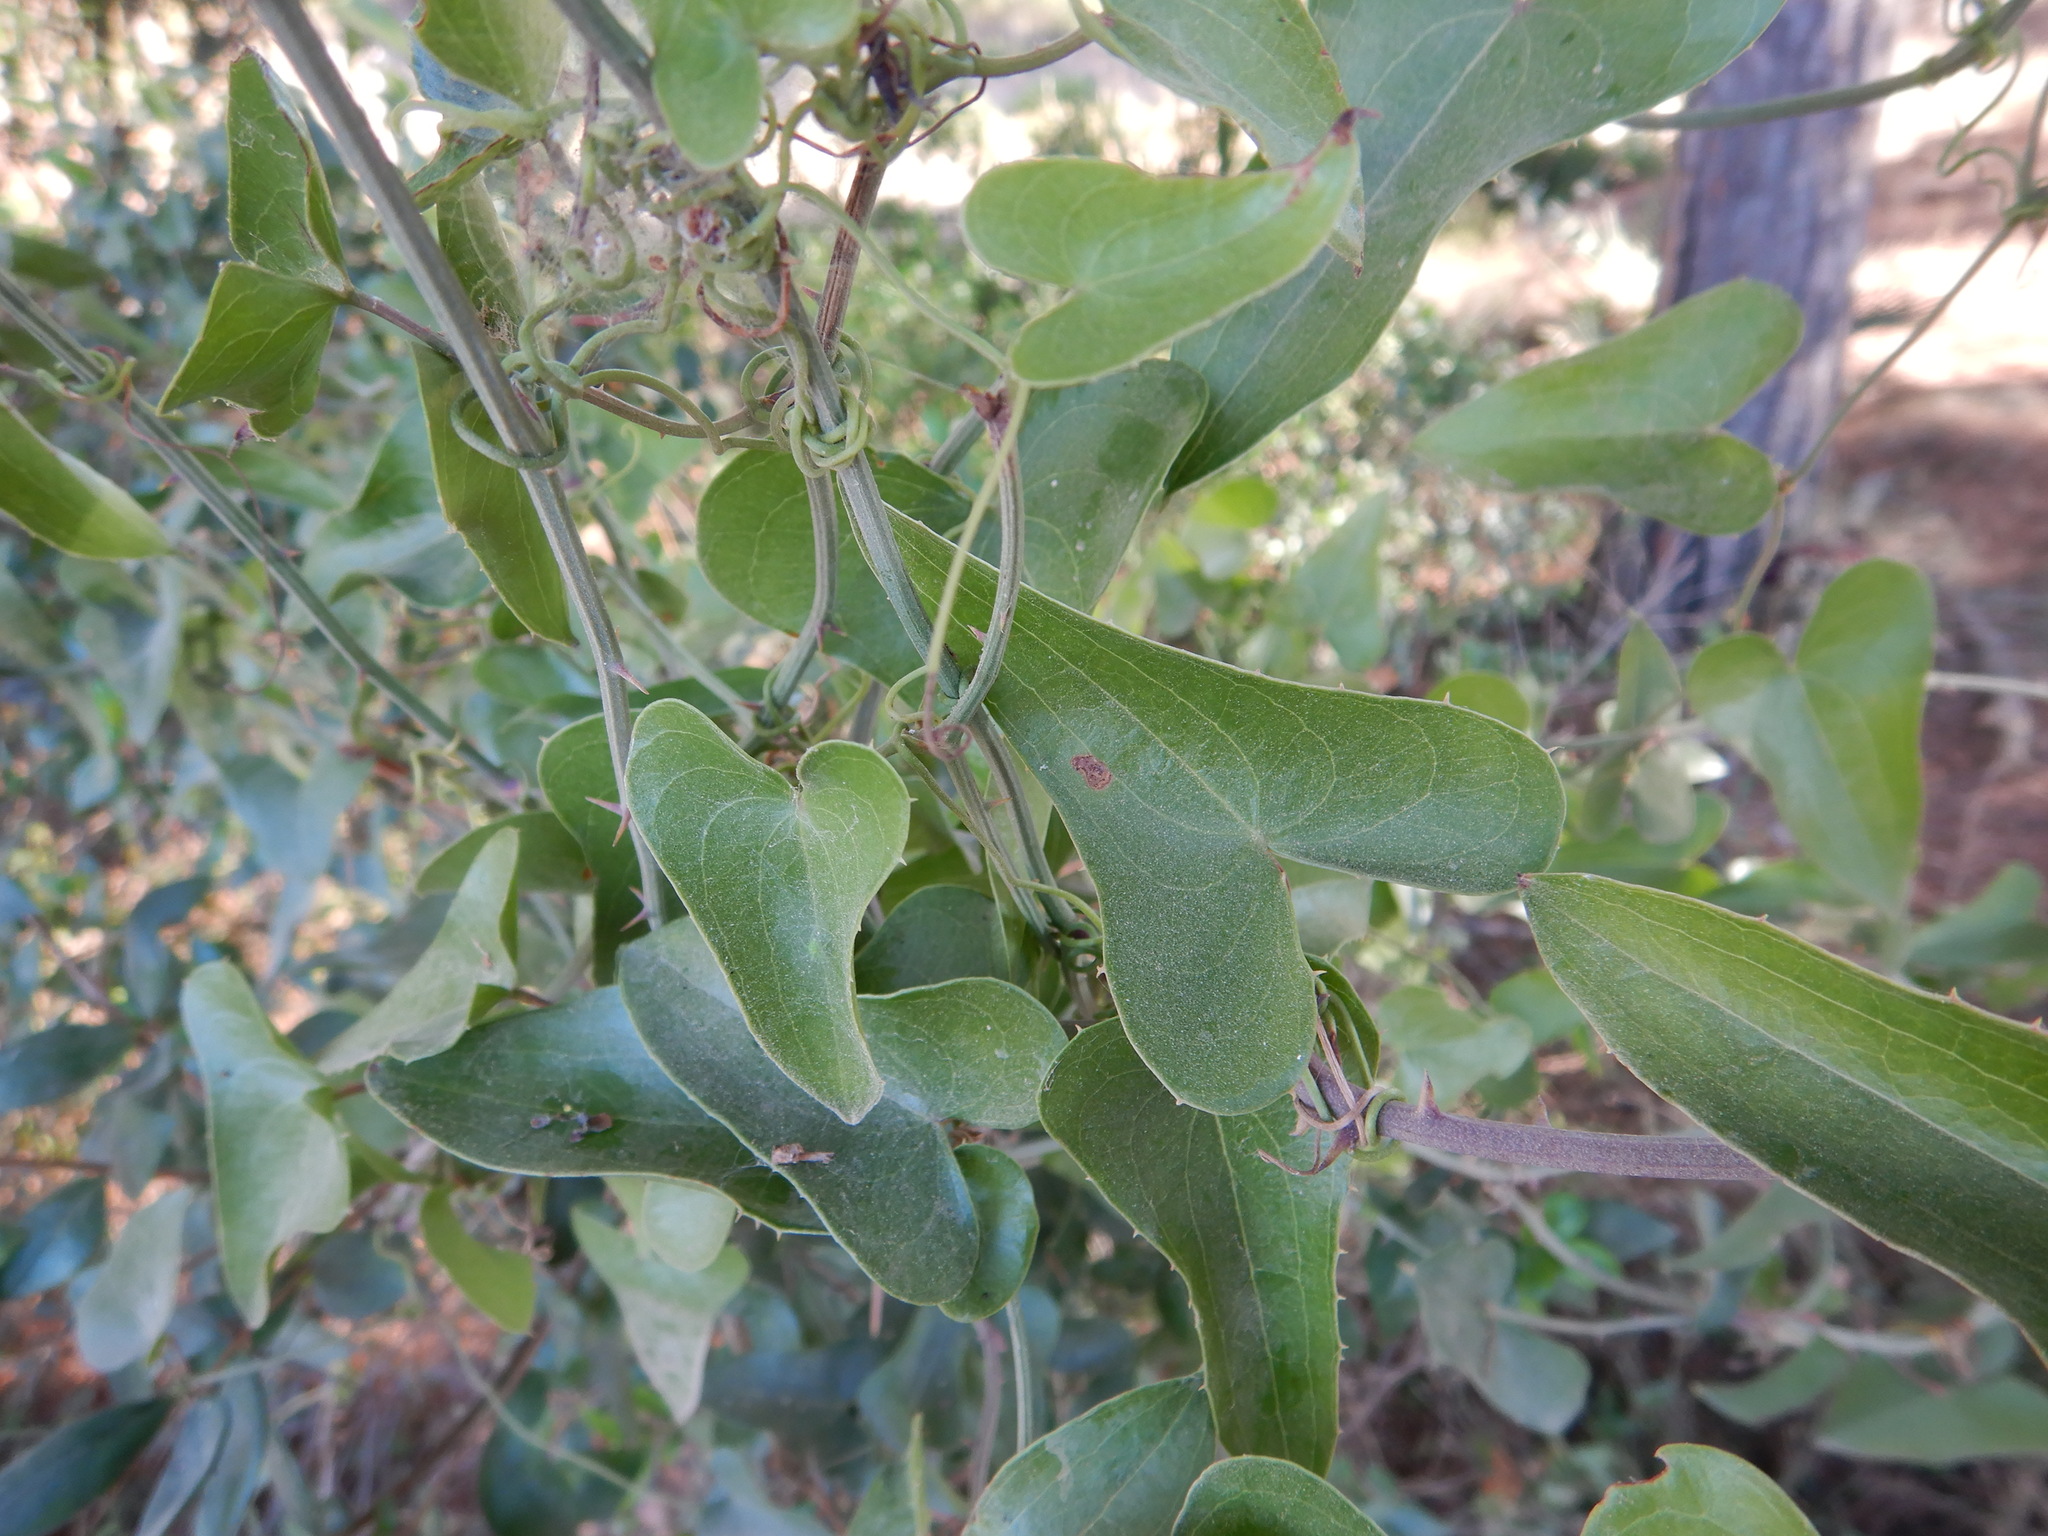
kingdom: Plantae
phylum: Tracheophyta
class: Liliopsida
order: Liliales
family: Smilacaceae
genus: Smilax
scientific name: Smilax aspera
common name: Common smilax
